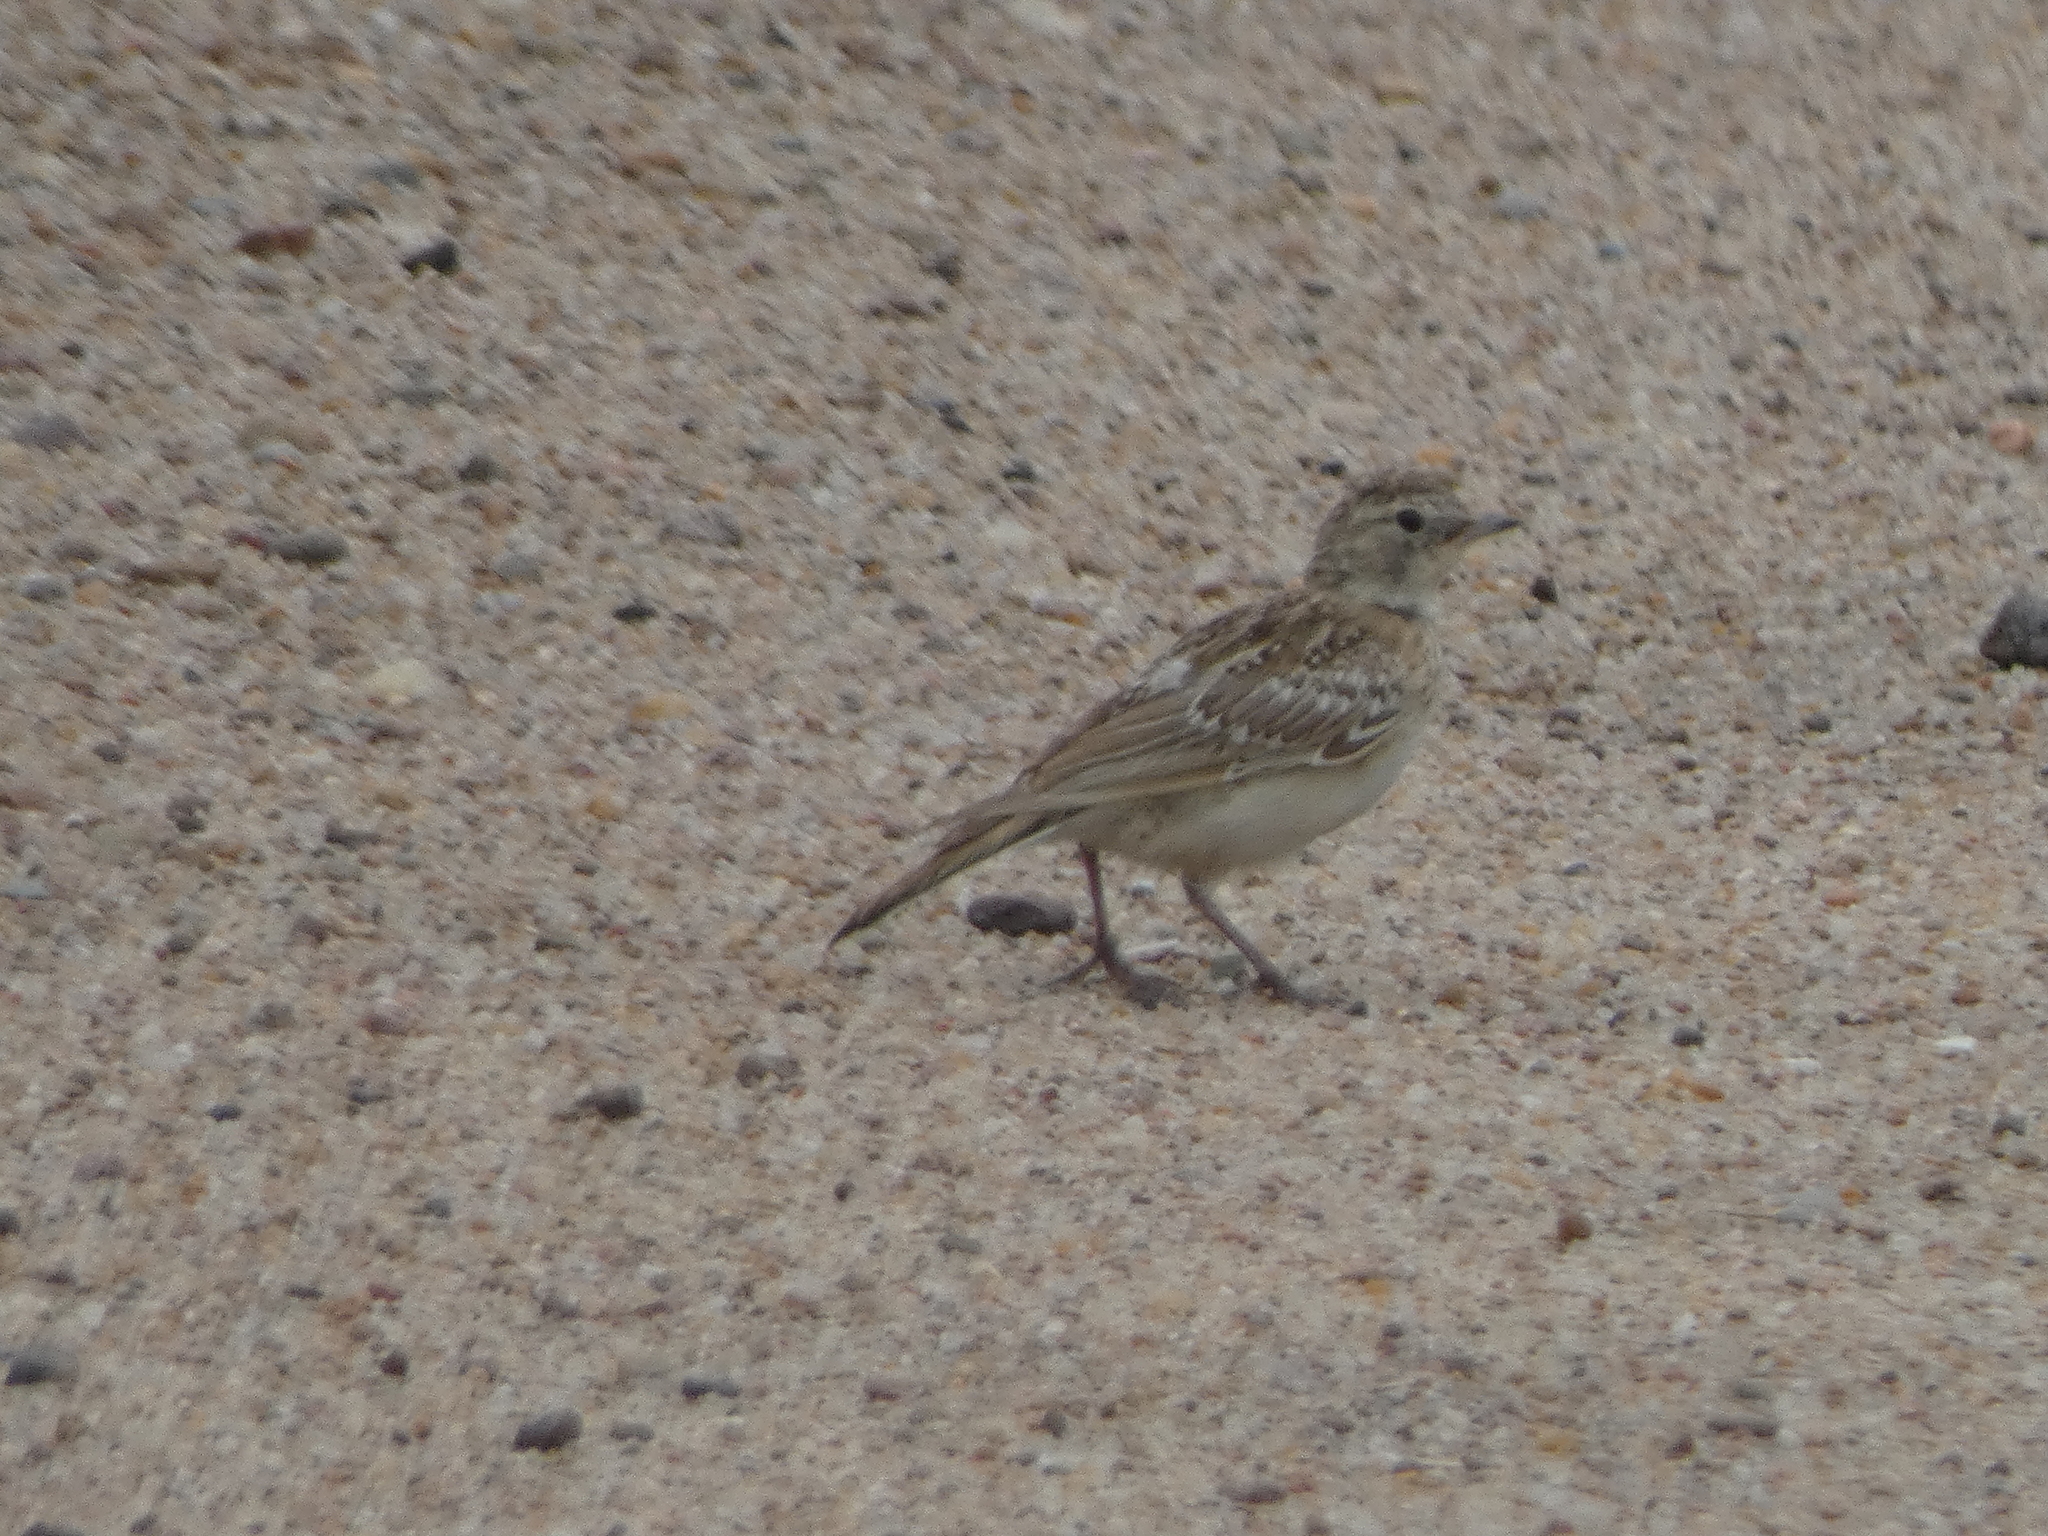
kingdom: Animalia
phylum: Chordata
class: Aves
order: Passeriformes
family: Alaudidae
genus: Eremophila
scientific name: Eremophila alpestris
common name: Horned lark
